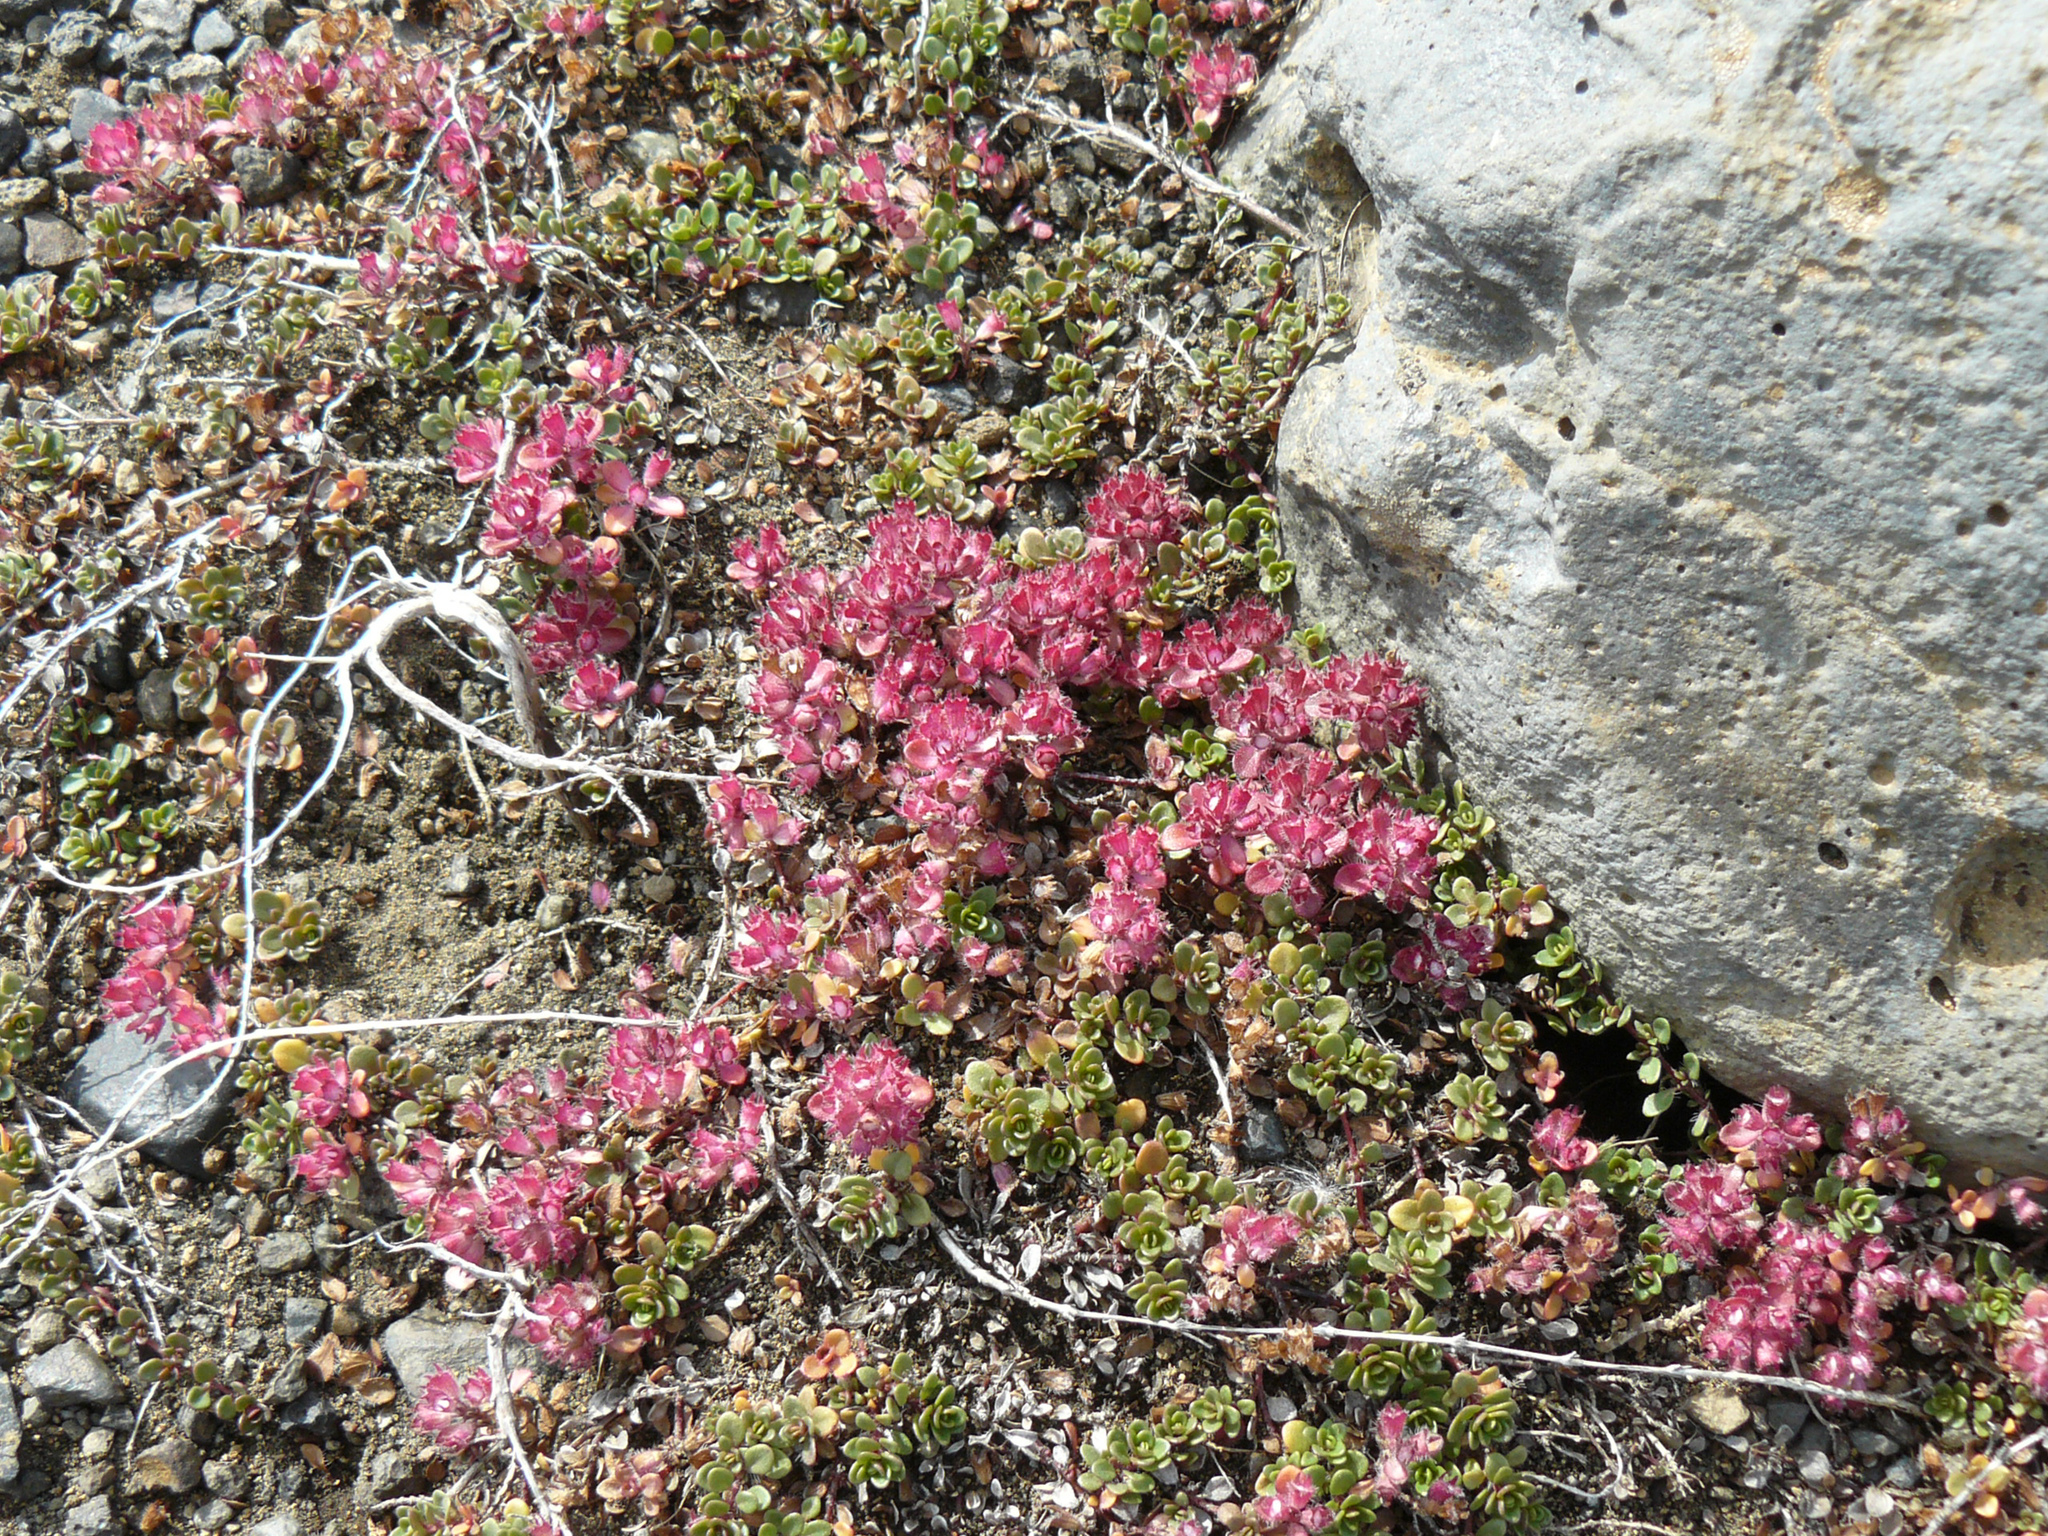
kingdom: Plantae
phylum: Tracheophyta
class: Magnoliopsida
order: Lamiales
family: Lamiaceae
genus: Thymus
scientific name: Thymus praecox
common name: Wild thyme
